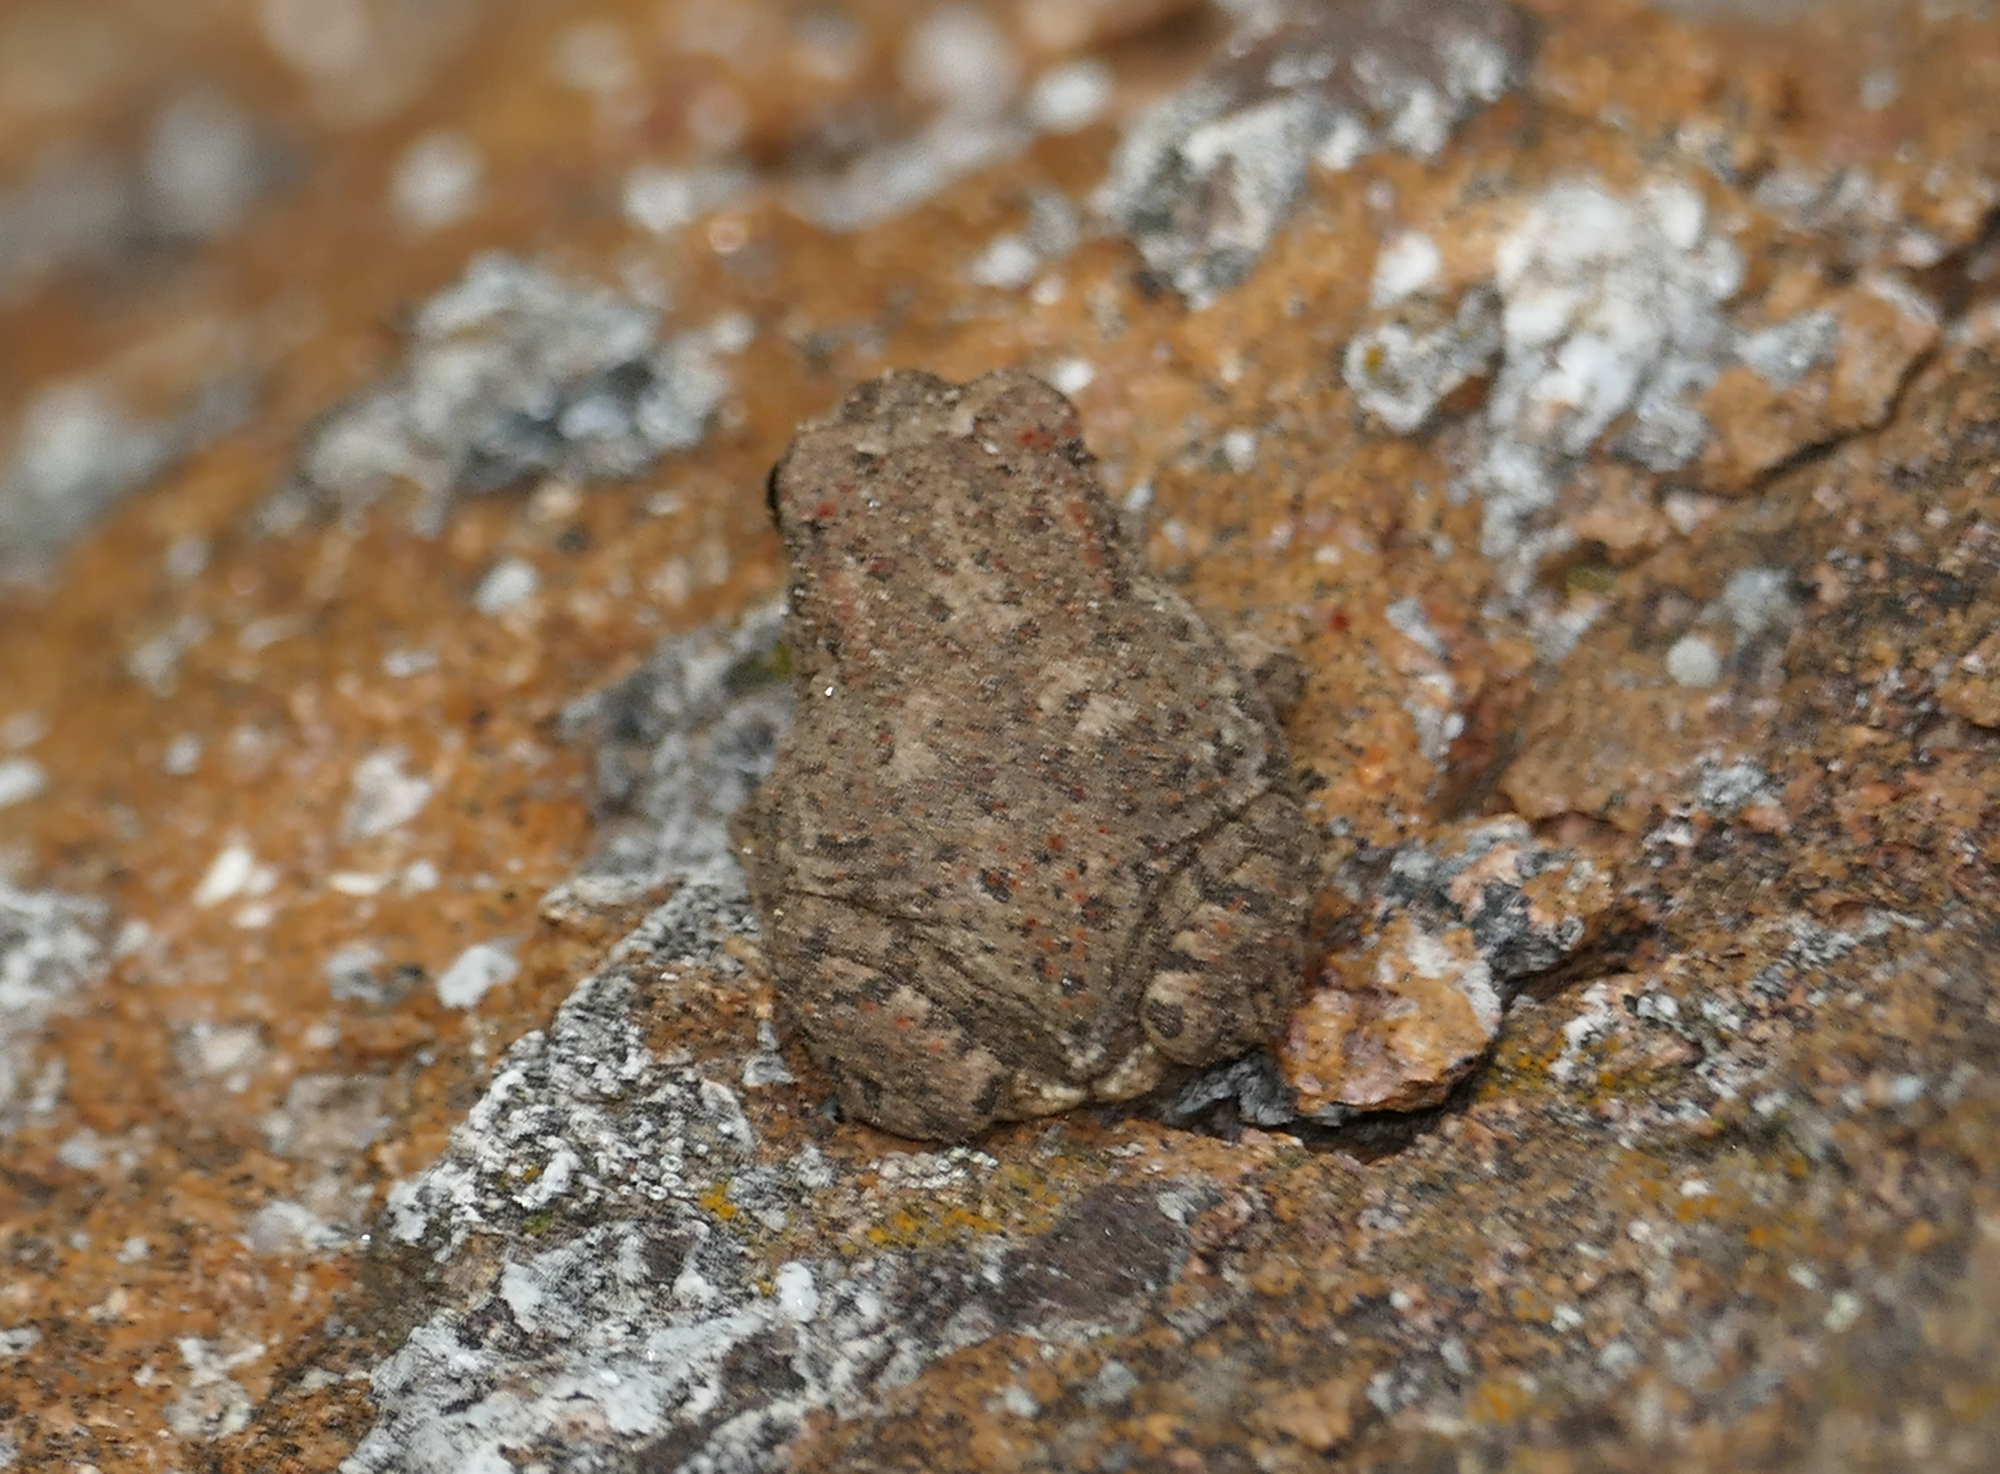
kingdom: Animalia
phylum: Chordata
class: Amphibia
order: Anura
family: Bufonidae
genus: Anaxyrus
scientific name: Anaxyrus microscaphus
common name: Arizona toad
